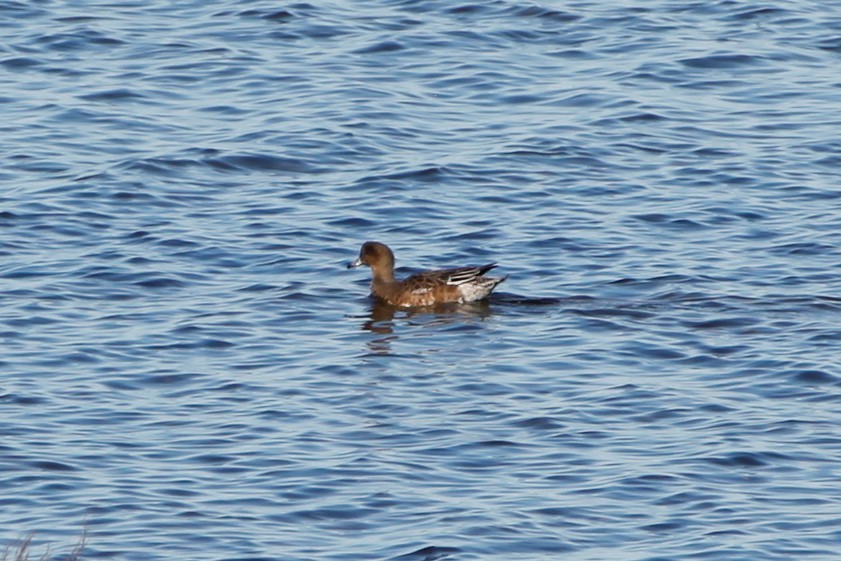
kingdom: Animalia
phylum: Chordata
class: Aves
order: Anseriformes
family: Anatidae
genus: Mareca
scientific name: Mareca penelope
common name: Eurasian wigeon
